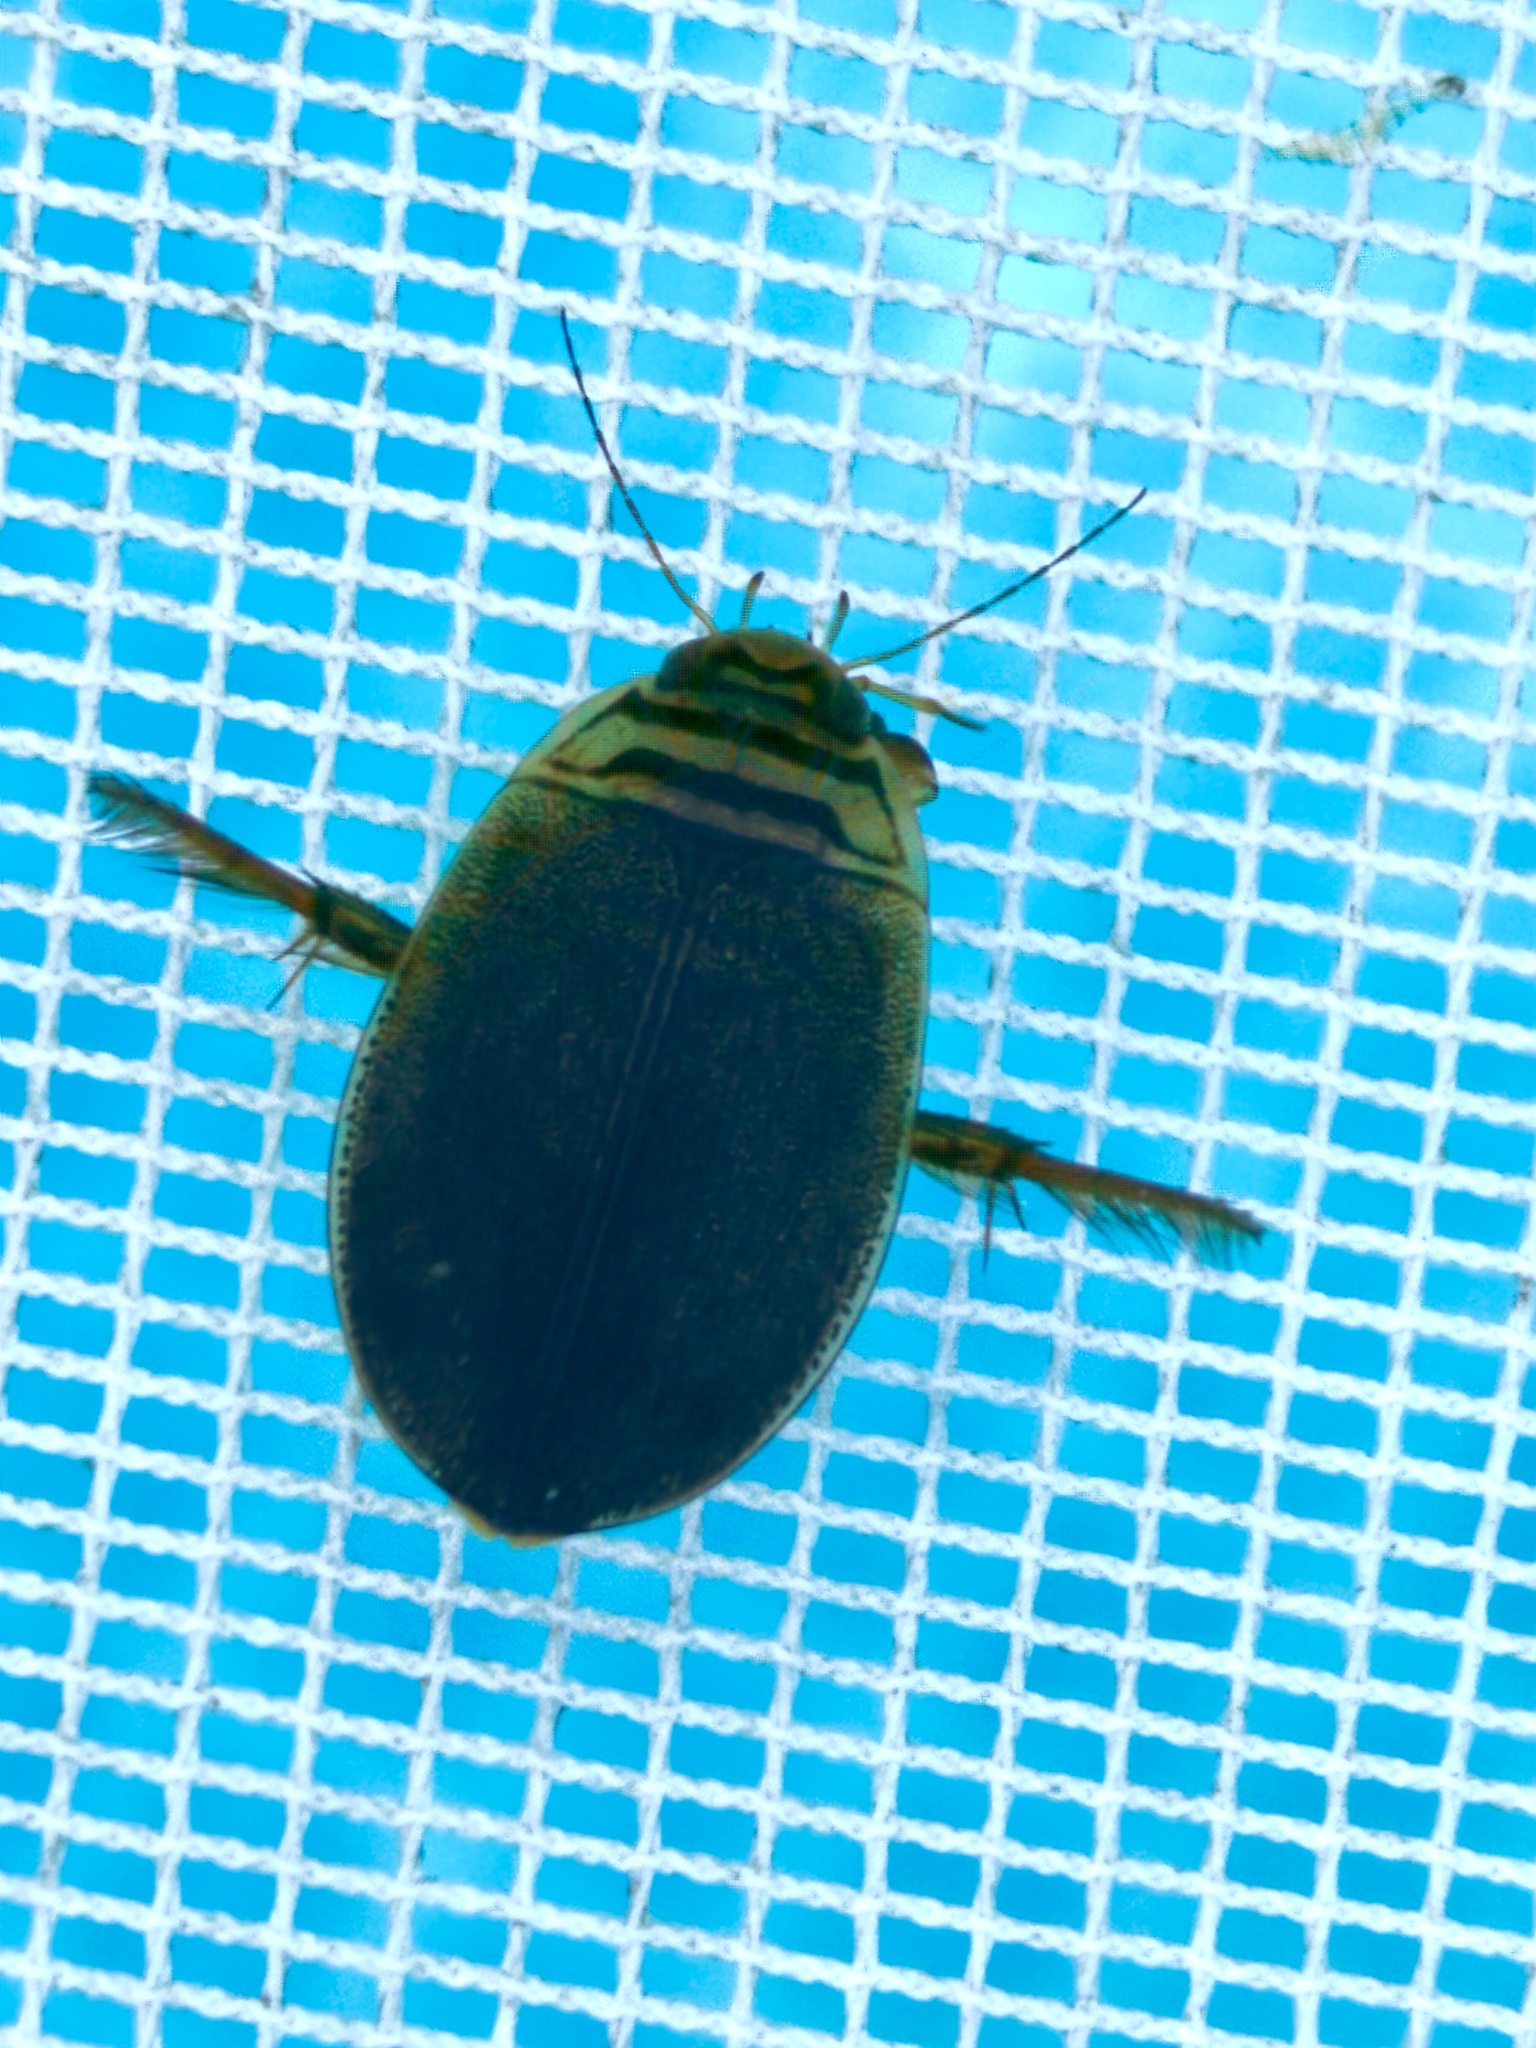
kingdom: Animalia
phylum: Arthropoda
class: Insecta
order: Coleoptera
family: Dytiscidae
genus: Acilius
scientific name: Acilius canaliculatus
